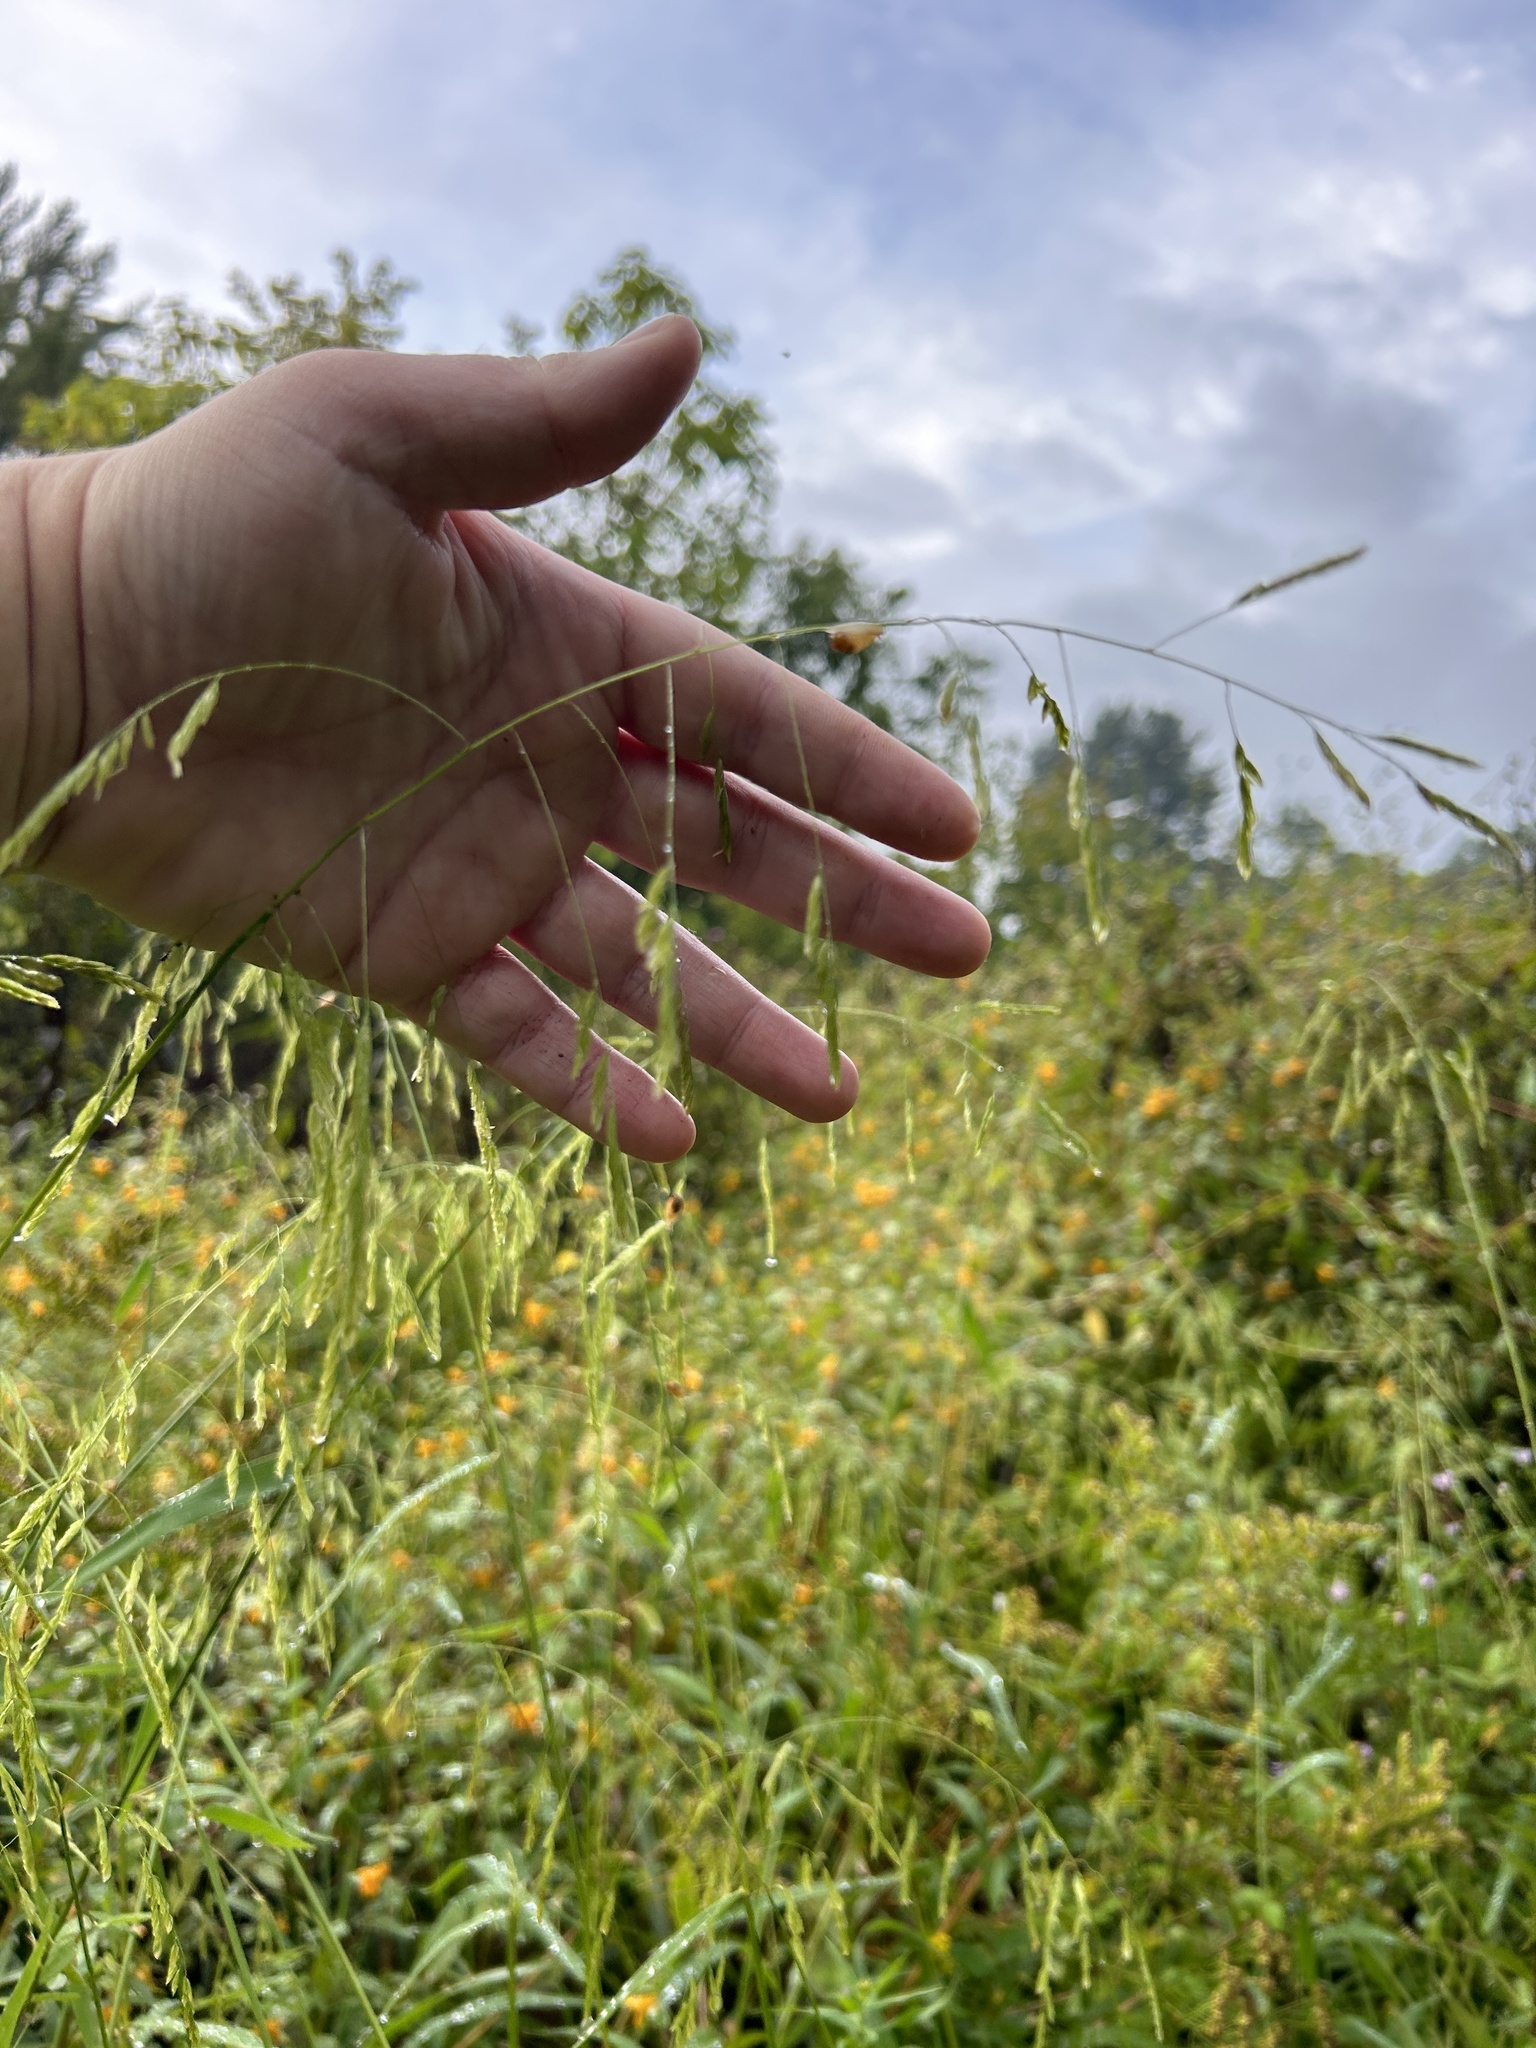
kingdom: Plantae
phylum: Tracheophyta
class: Liliopsida
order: Poales
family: Poaceae
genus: Leersia
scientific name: Leersia oryzoides
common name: Cut-grass
